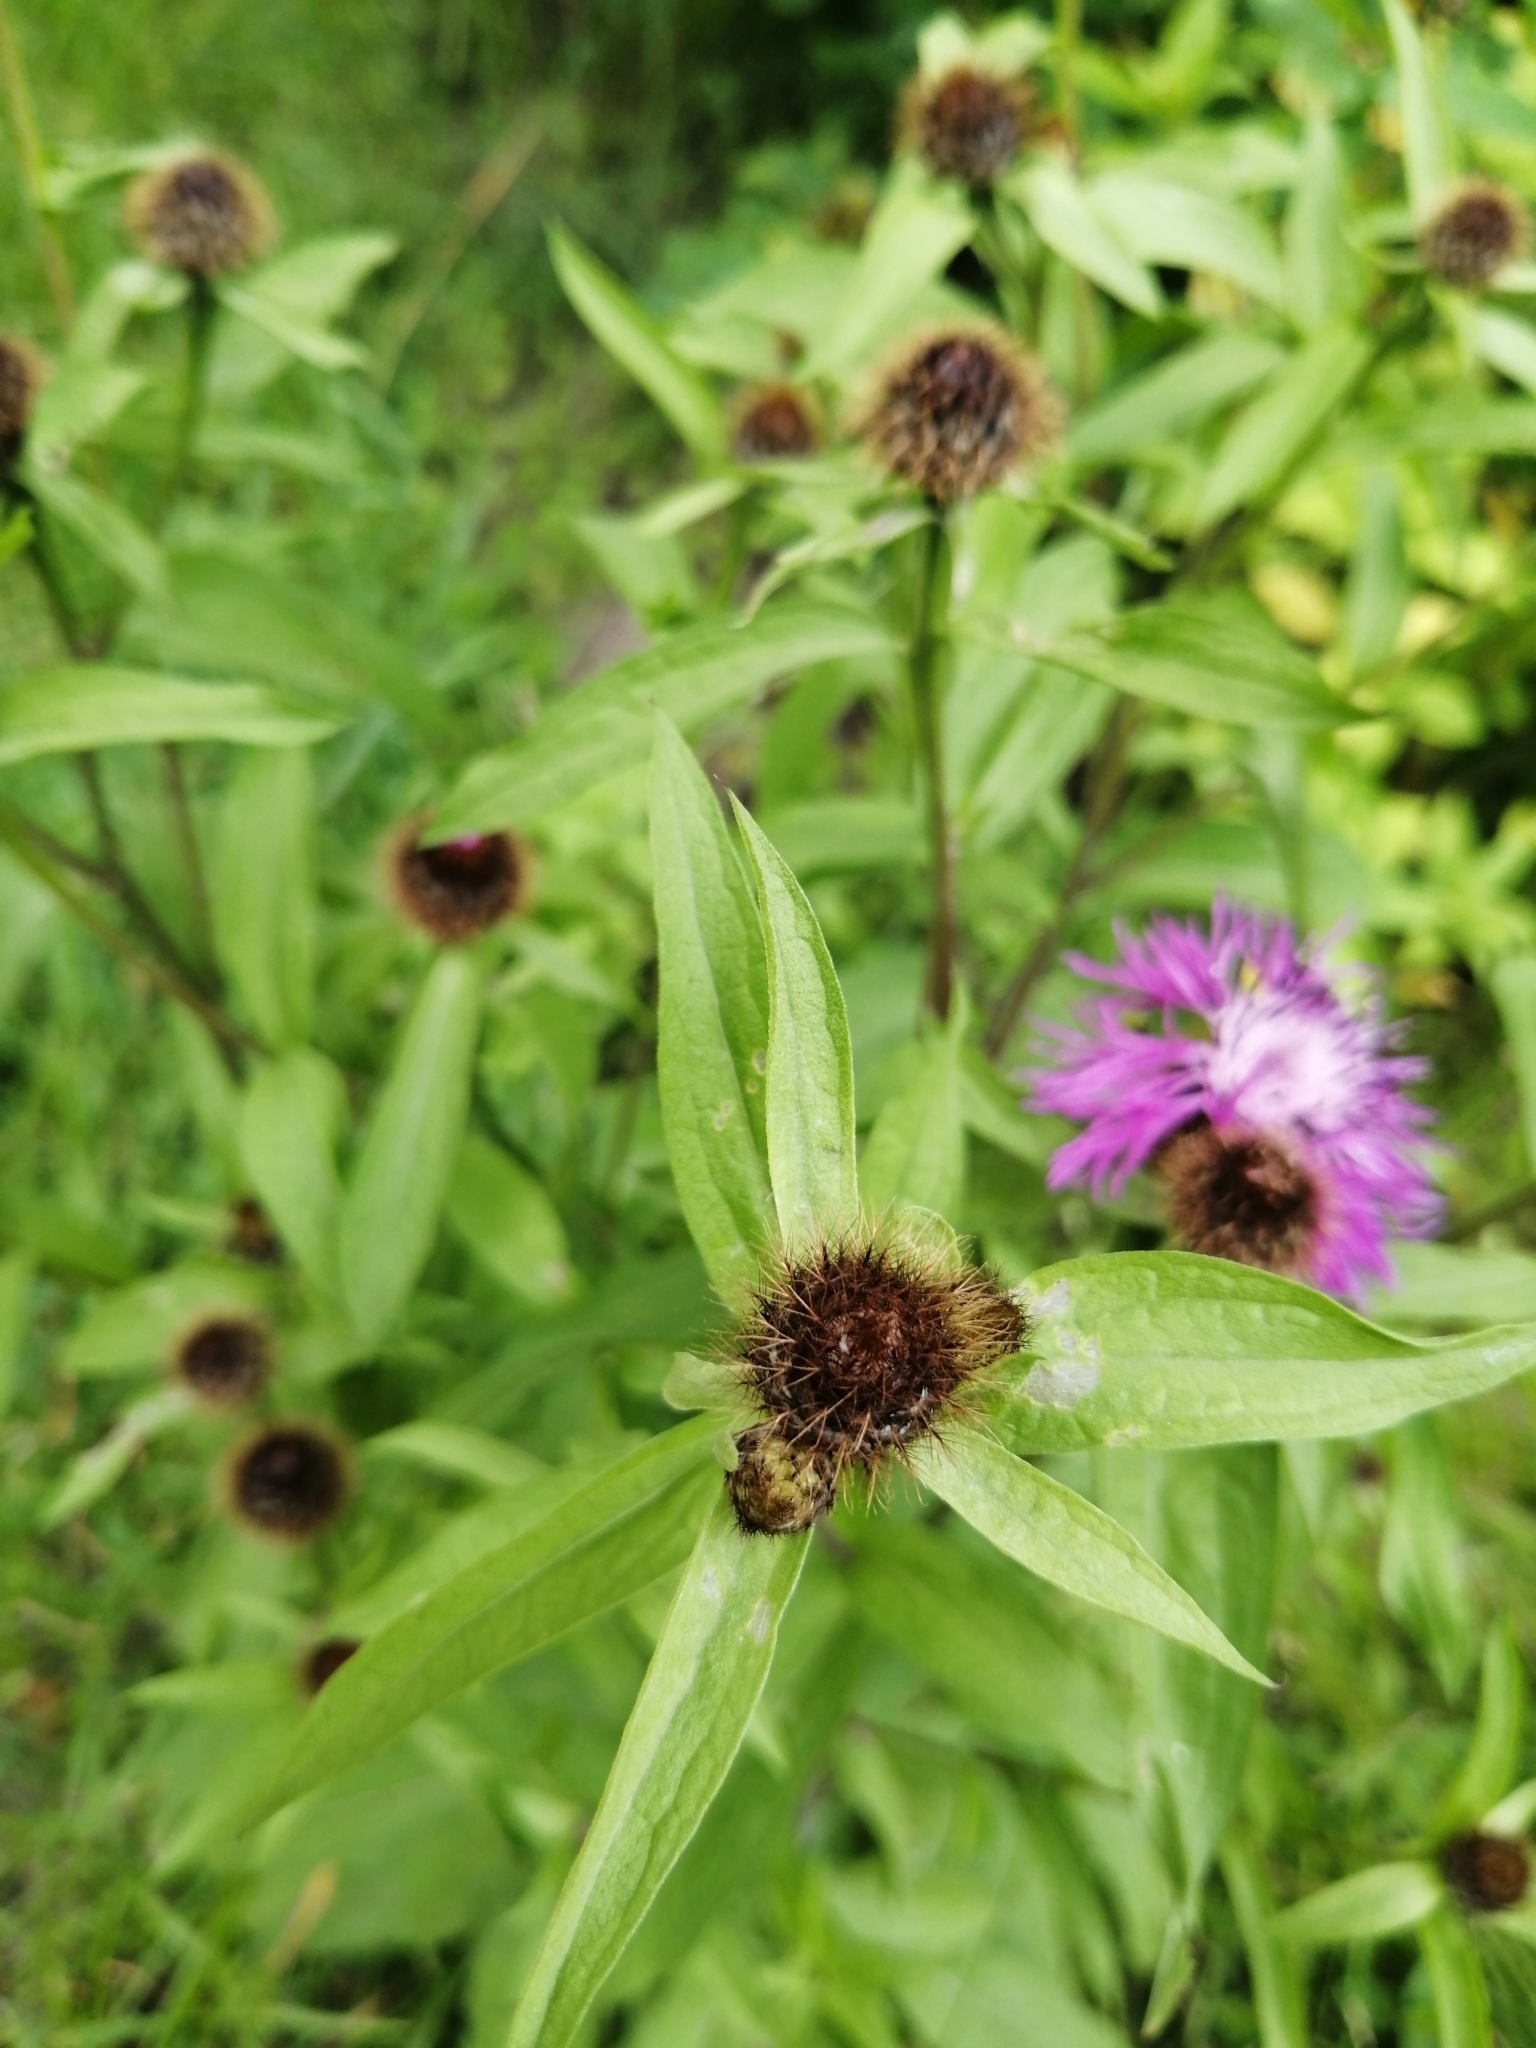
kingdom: Plantae
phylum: Tracheophyta
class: Magnoliopsida
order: Asterales
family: Asteraceae
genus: Centaurea
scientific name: Centaurea phrygia
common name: Wig knapweed
